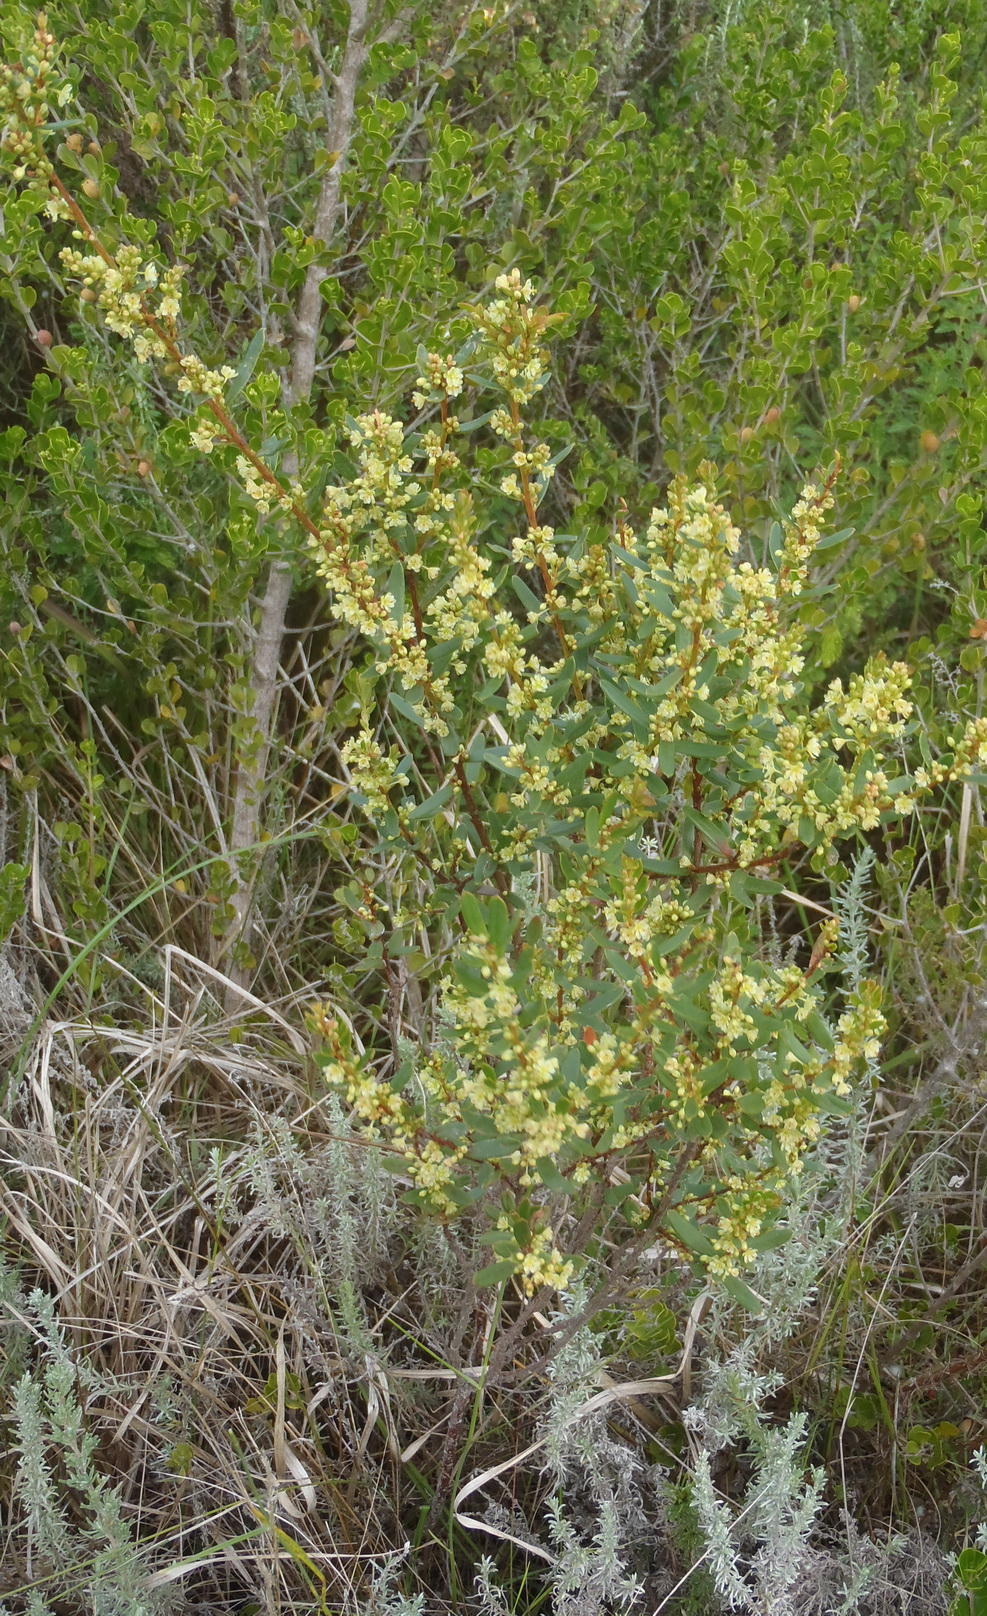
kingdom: Plantae
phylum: Tracheophyta
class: Magnoliopsida
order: Malpighiales
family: Peraceae
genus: Clutia
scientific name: Clutia laxa
